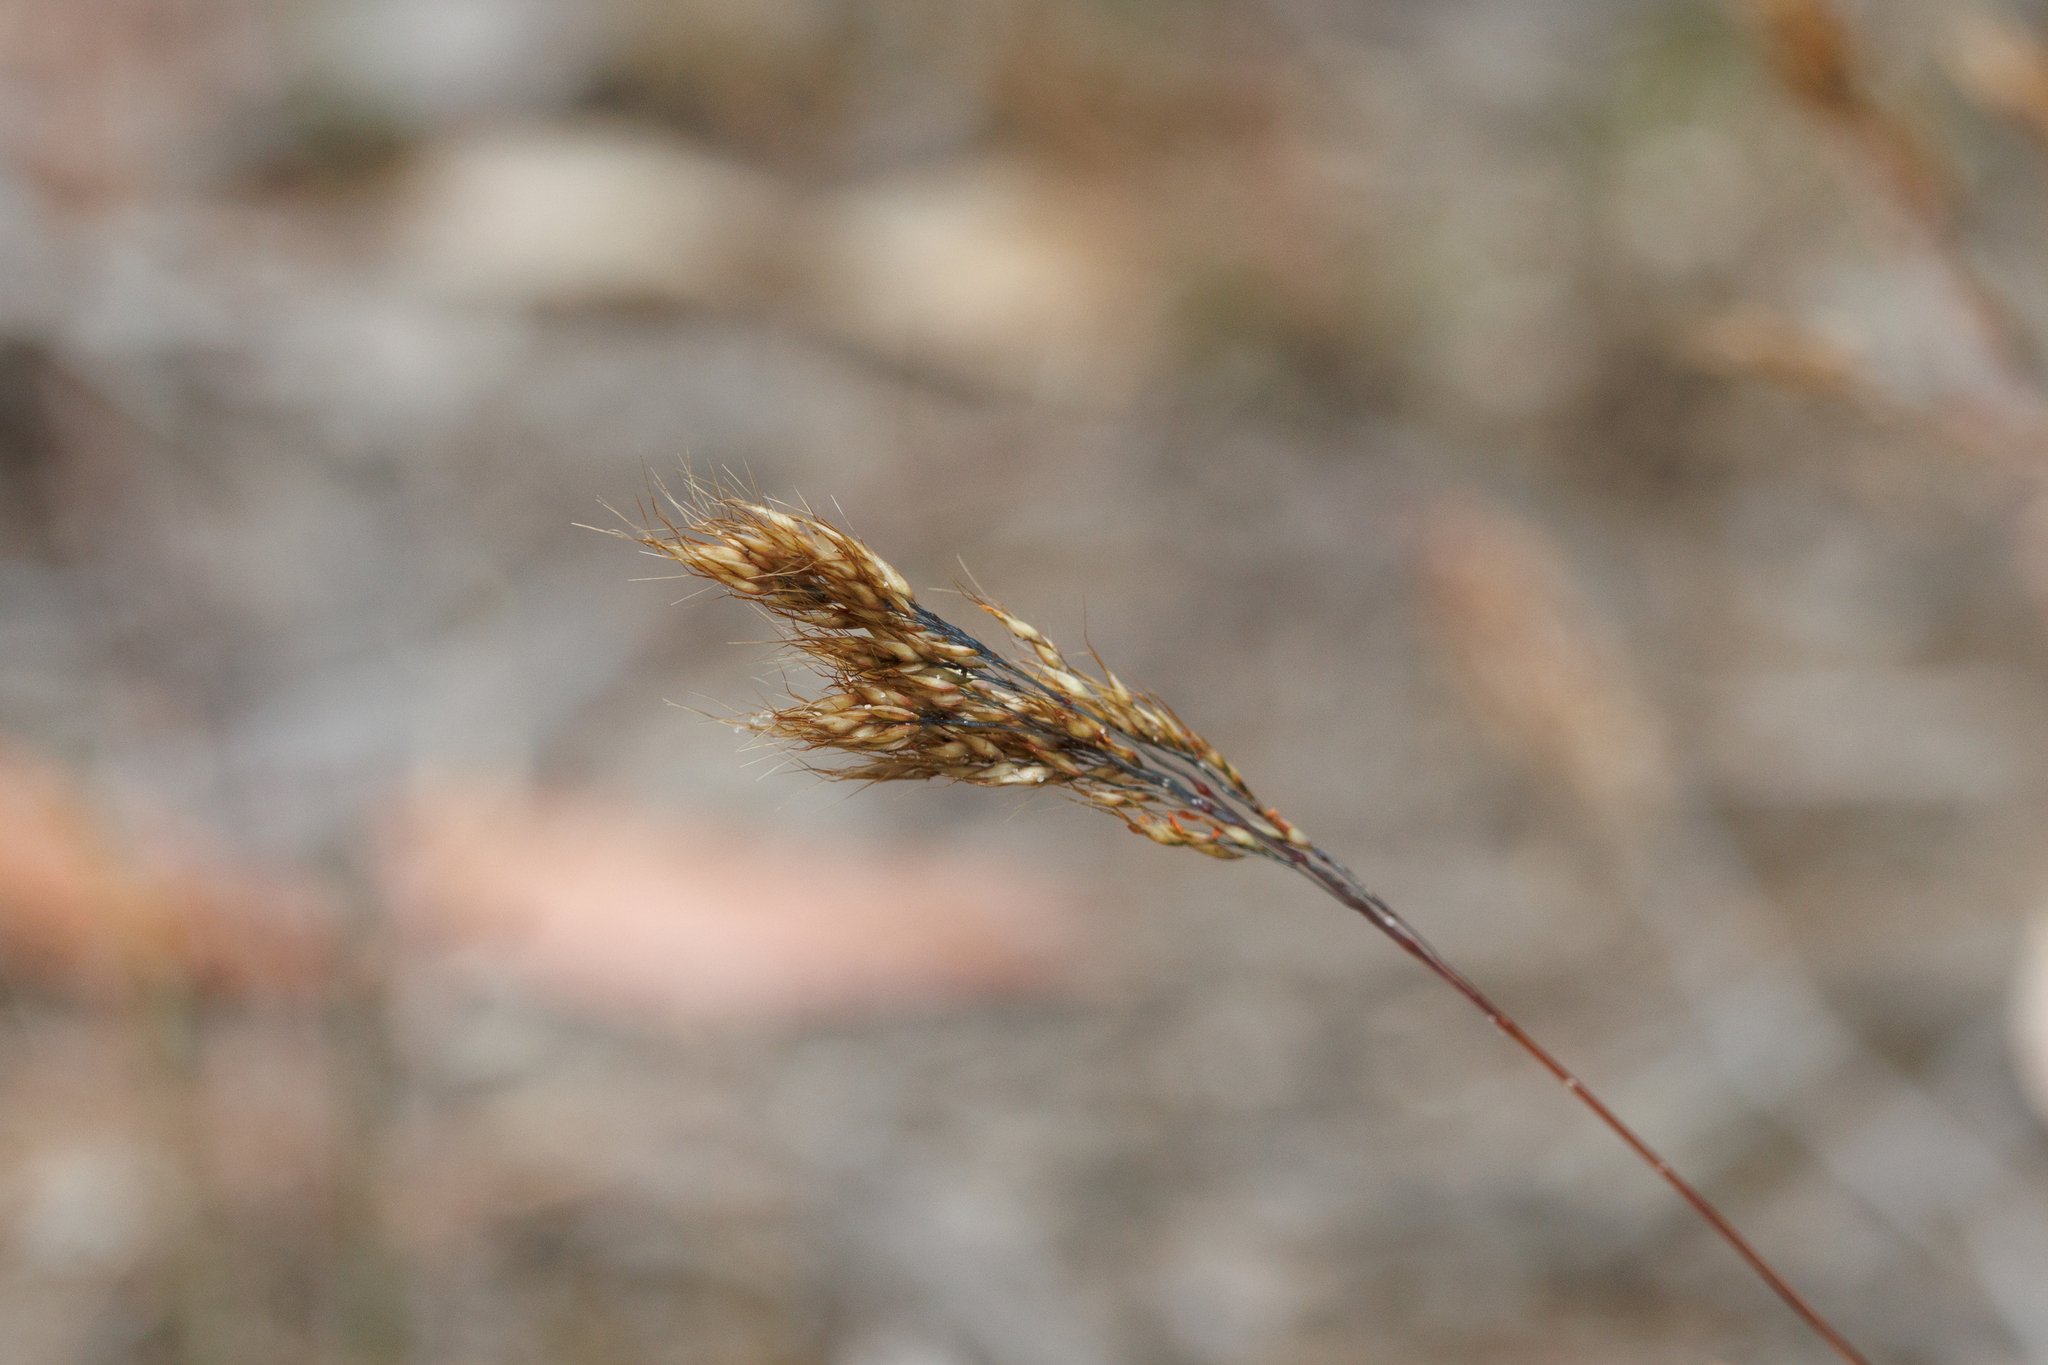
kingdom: Plantae
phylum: Tracheophyta
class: Liliopsida
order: Poales
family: Poaceae
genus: Pentameris
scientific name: Pentameris pallida
